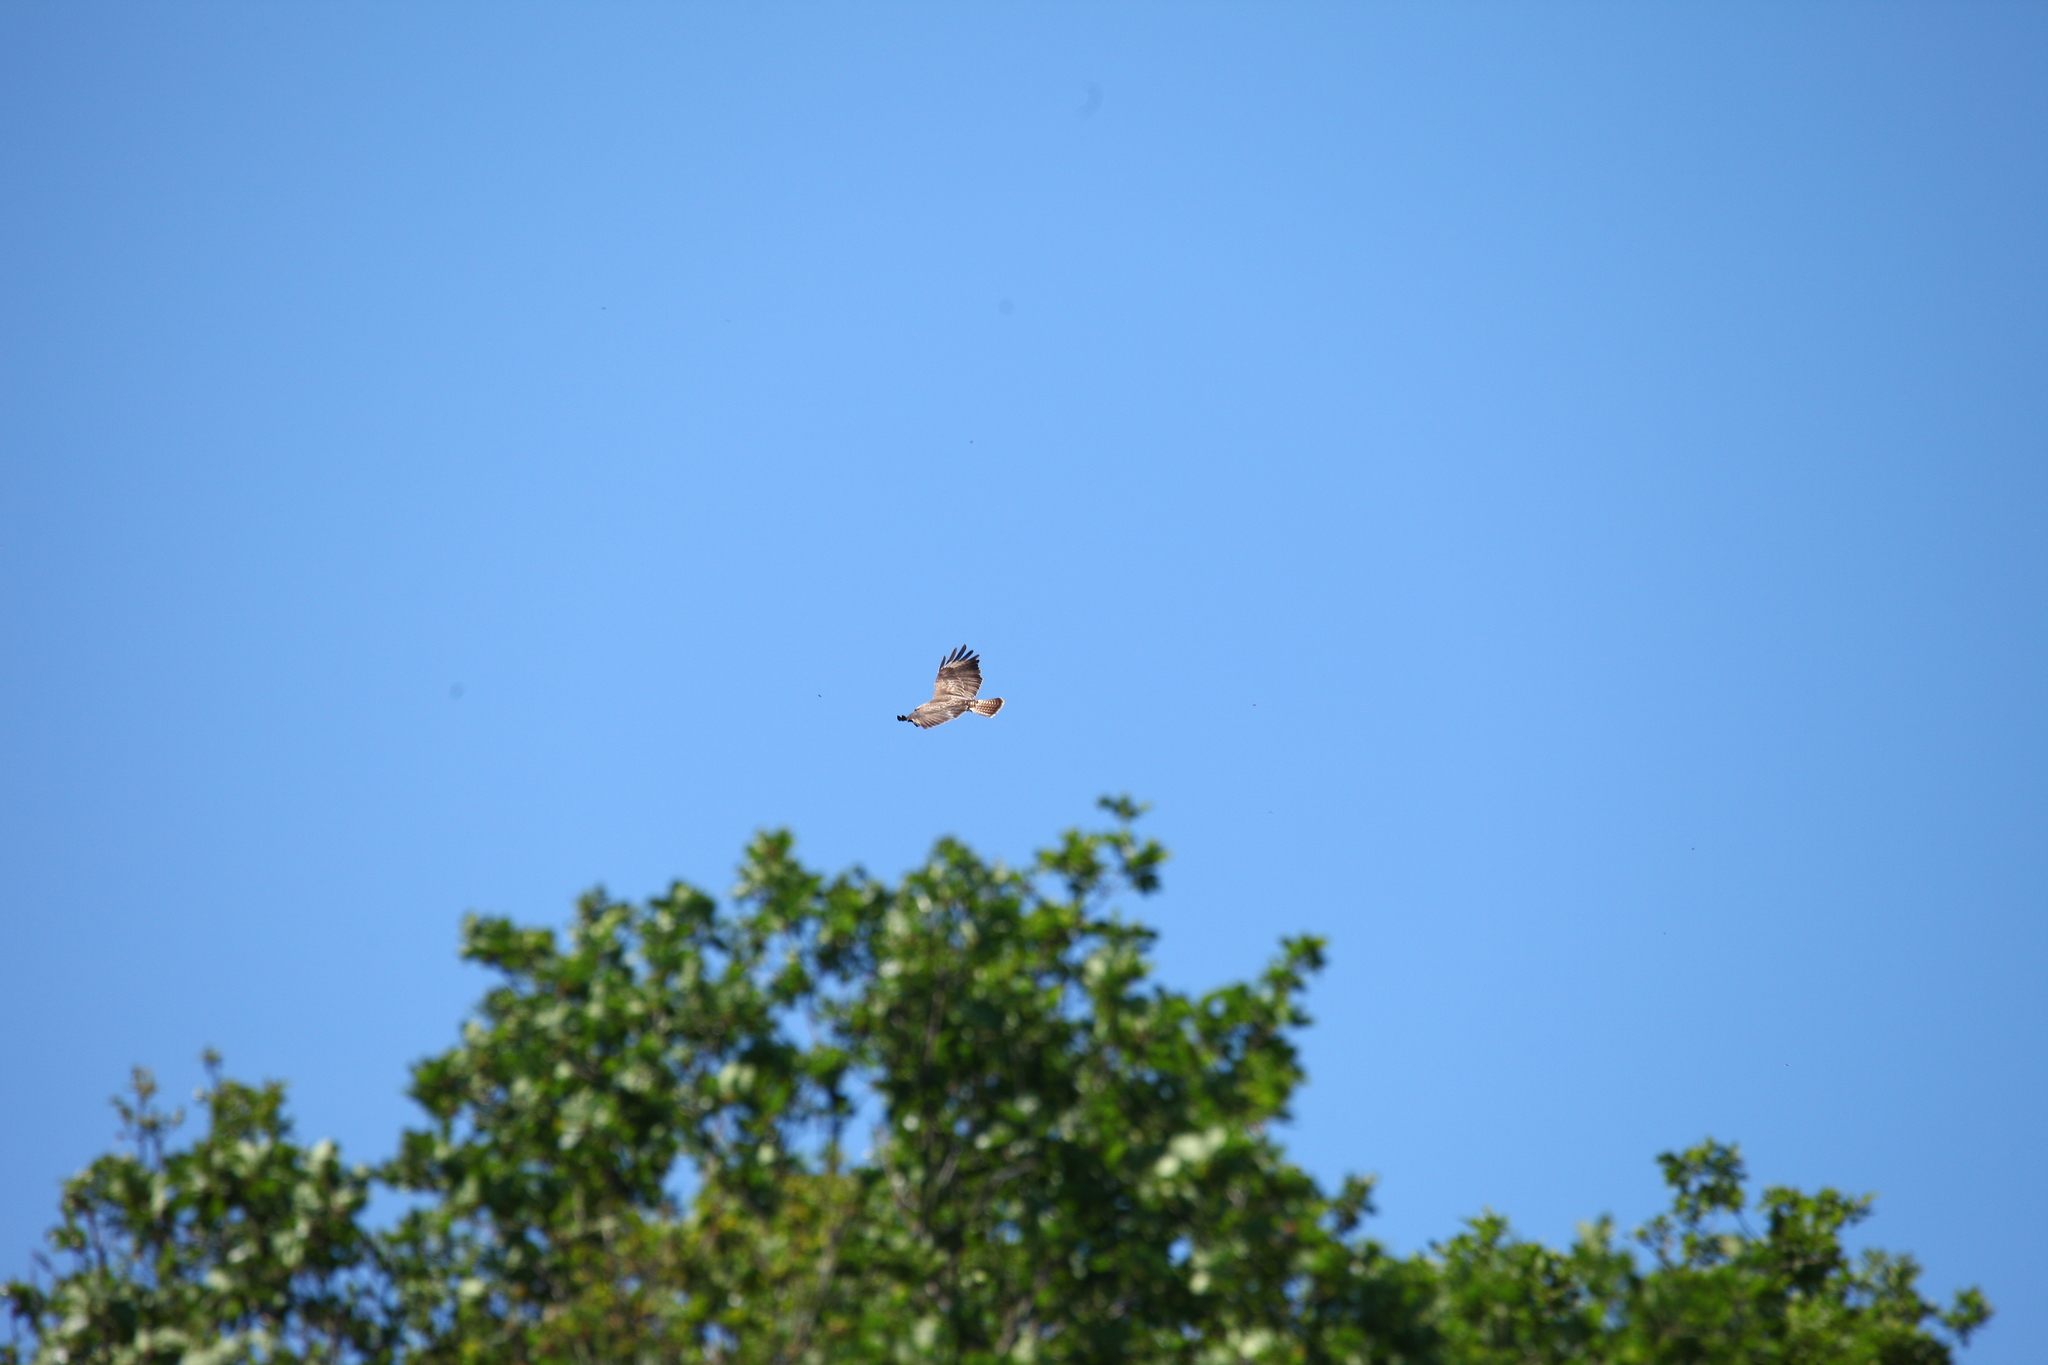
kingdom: Animalia
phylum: Chordata
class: Aves
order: Accipitriformes
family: Accipitridae
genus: Buteo
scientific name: Buteo buteo
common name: Common buzzard
